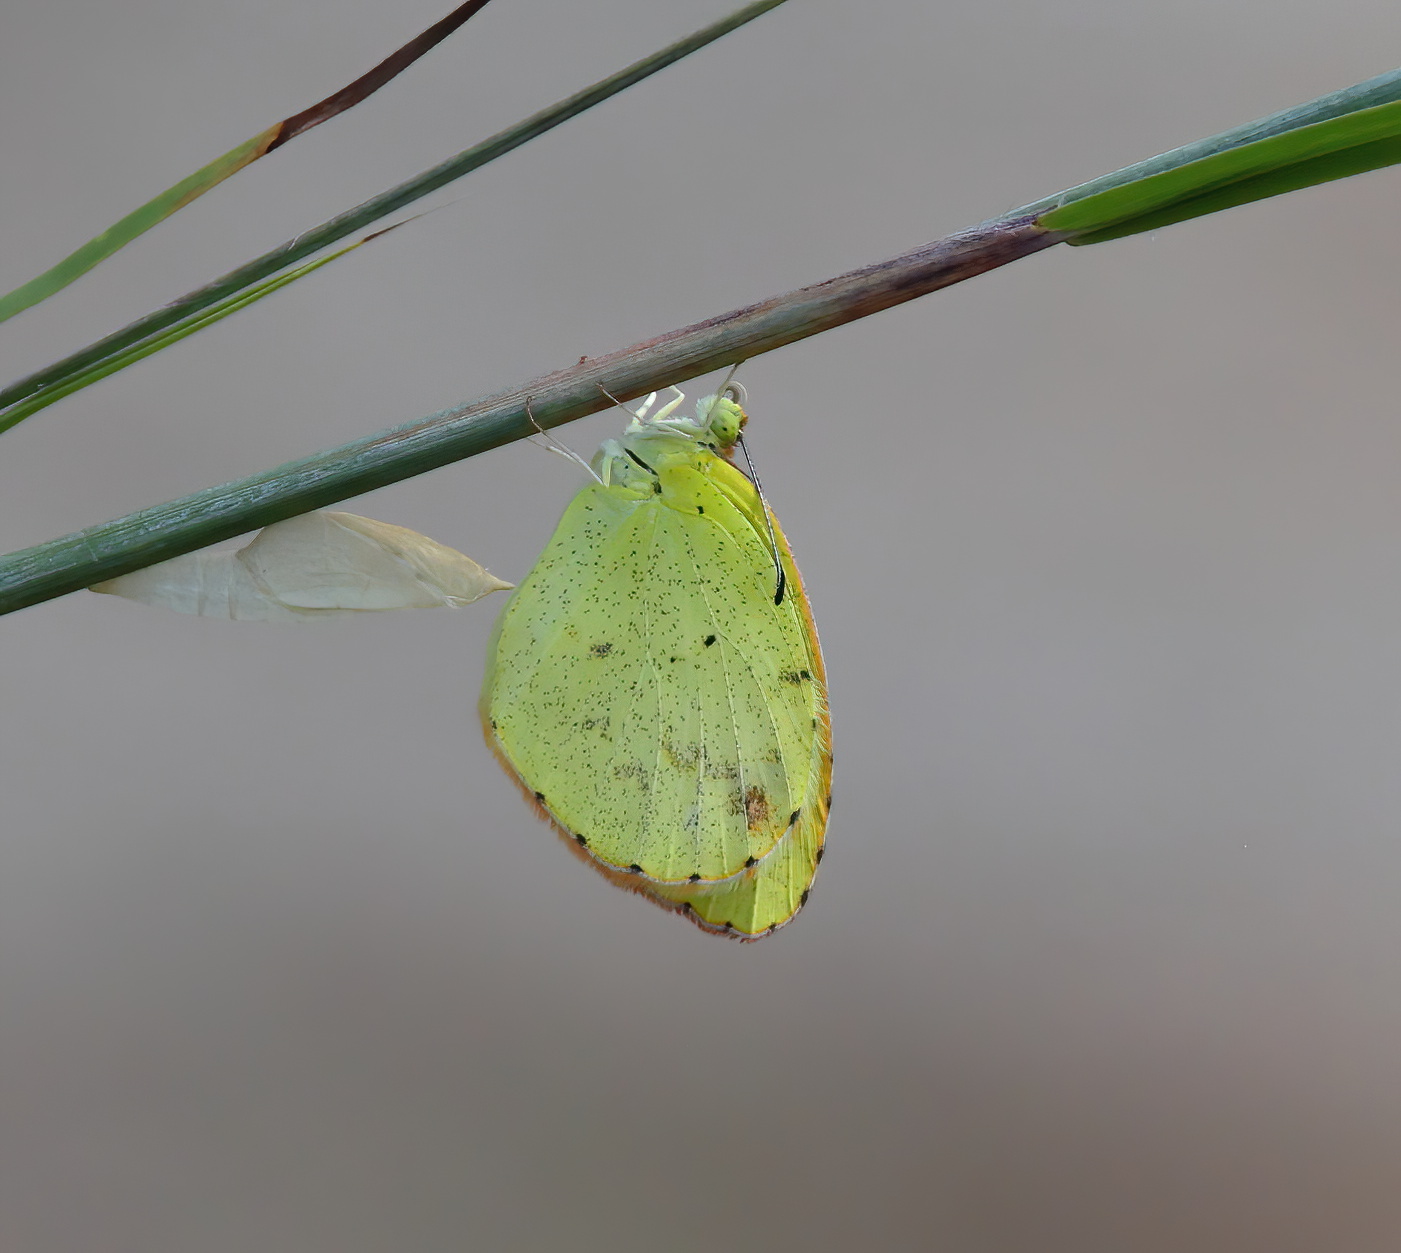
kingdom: Animalia
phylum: Arthropoda
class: Insecta
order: Lepidoptera
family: Pieridae
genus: Pyrisitia
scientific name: Pyrisitia lisa
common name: Little yellow
